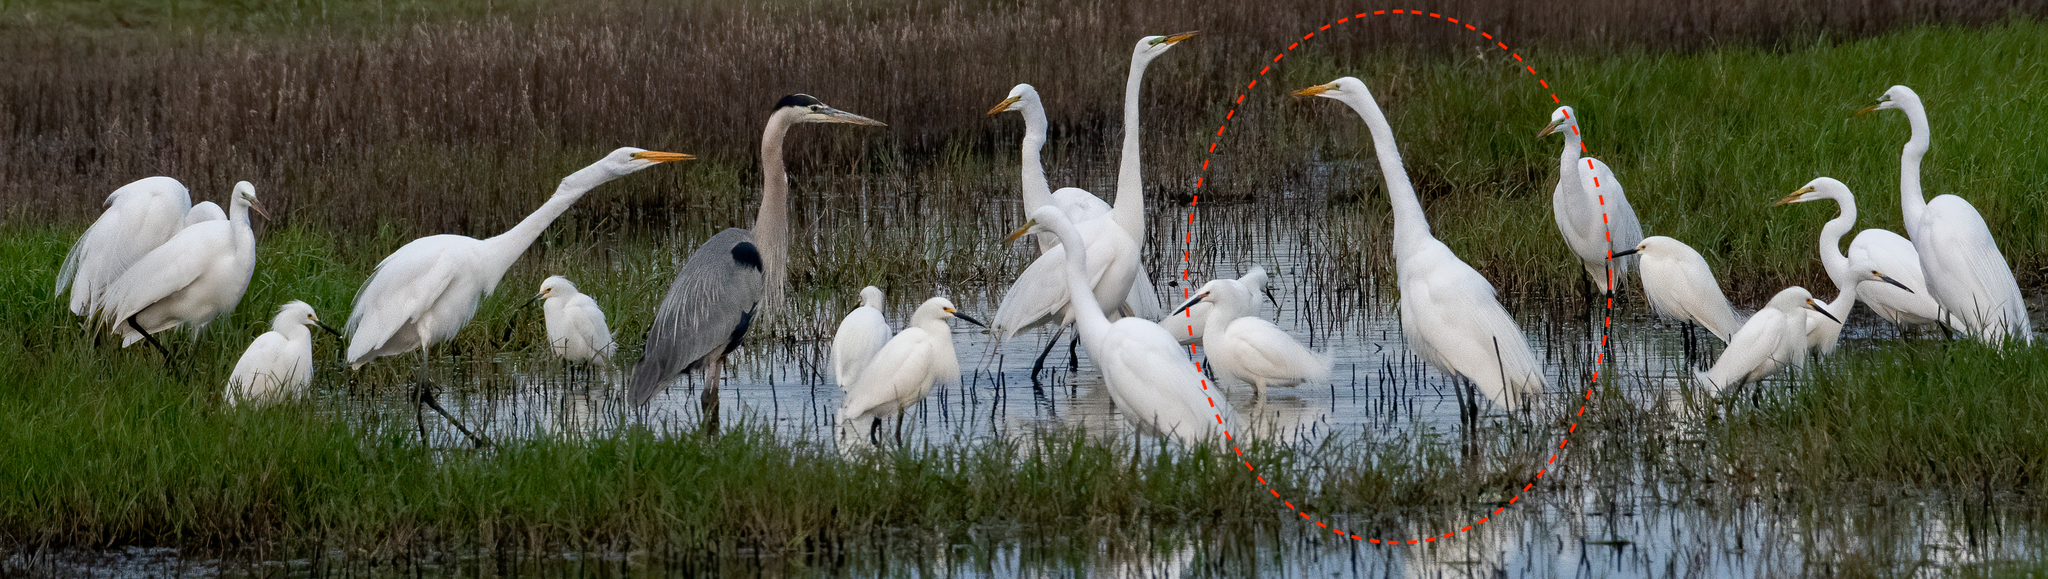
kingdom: Animalia
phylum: Chordata
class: Aves
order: Pelecaniformes
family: Ardeidae
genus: Ardea
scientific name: Ardea alba
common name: Great egret
